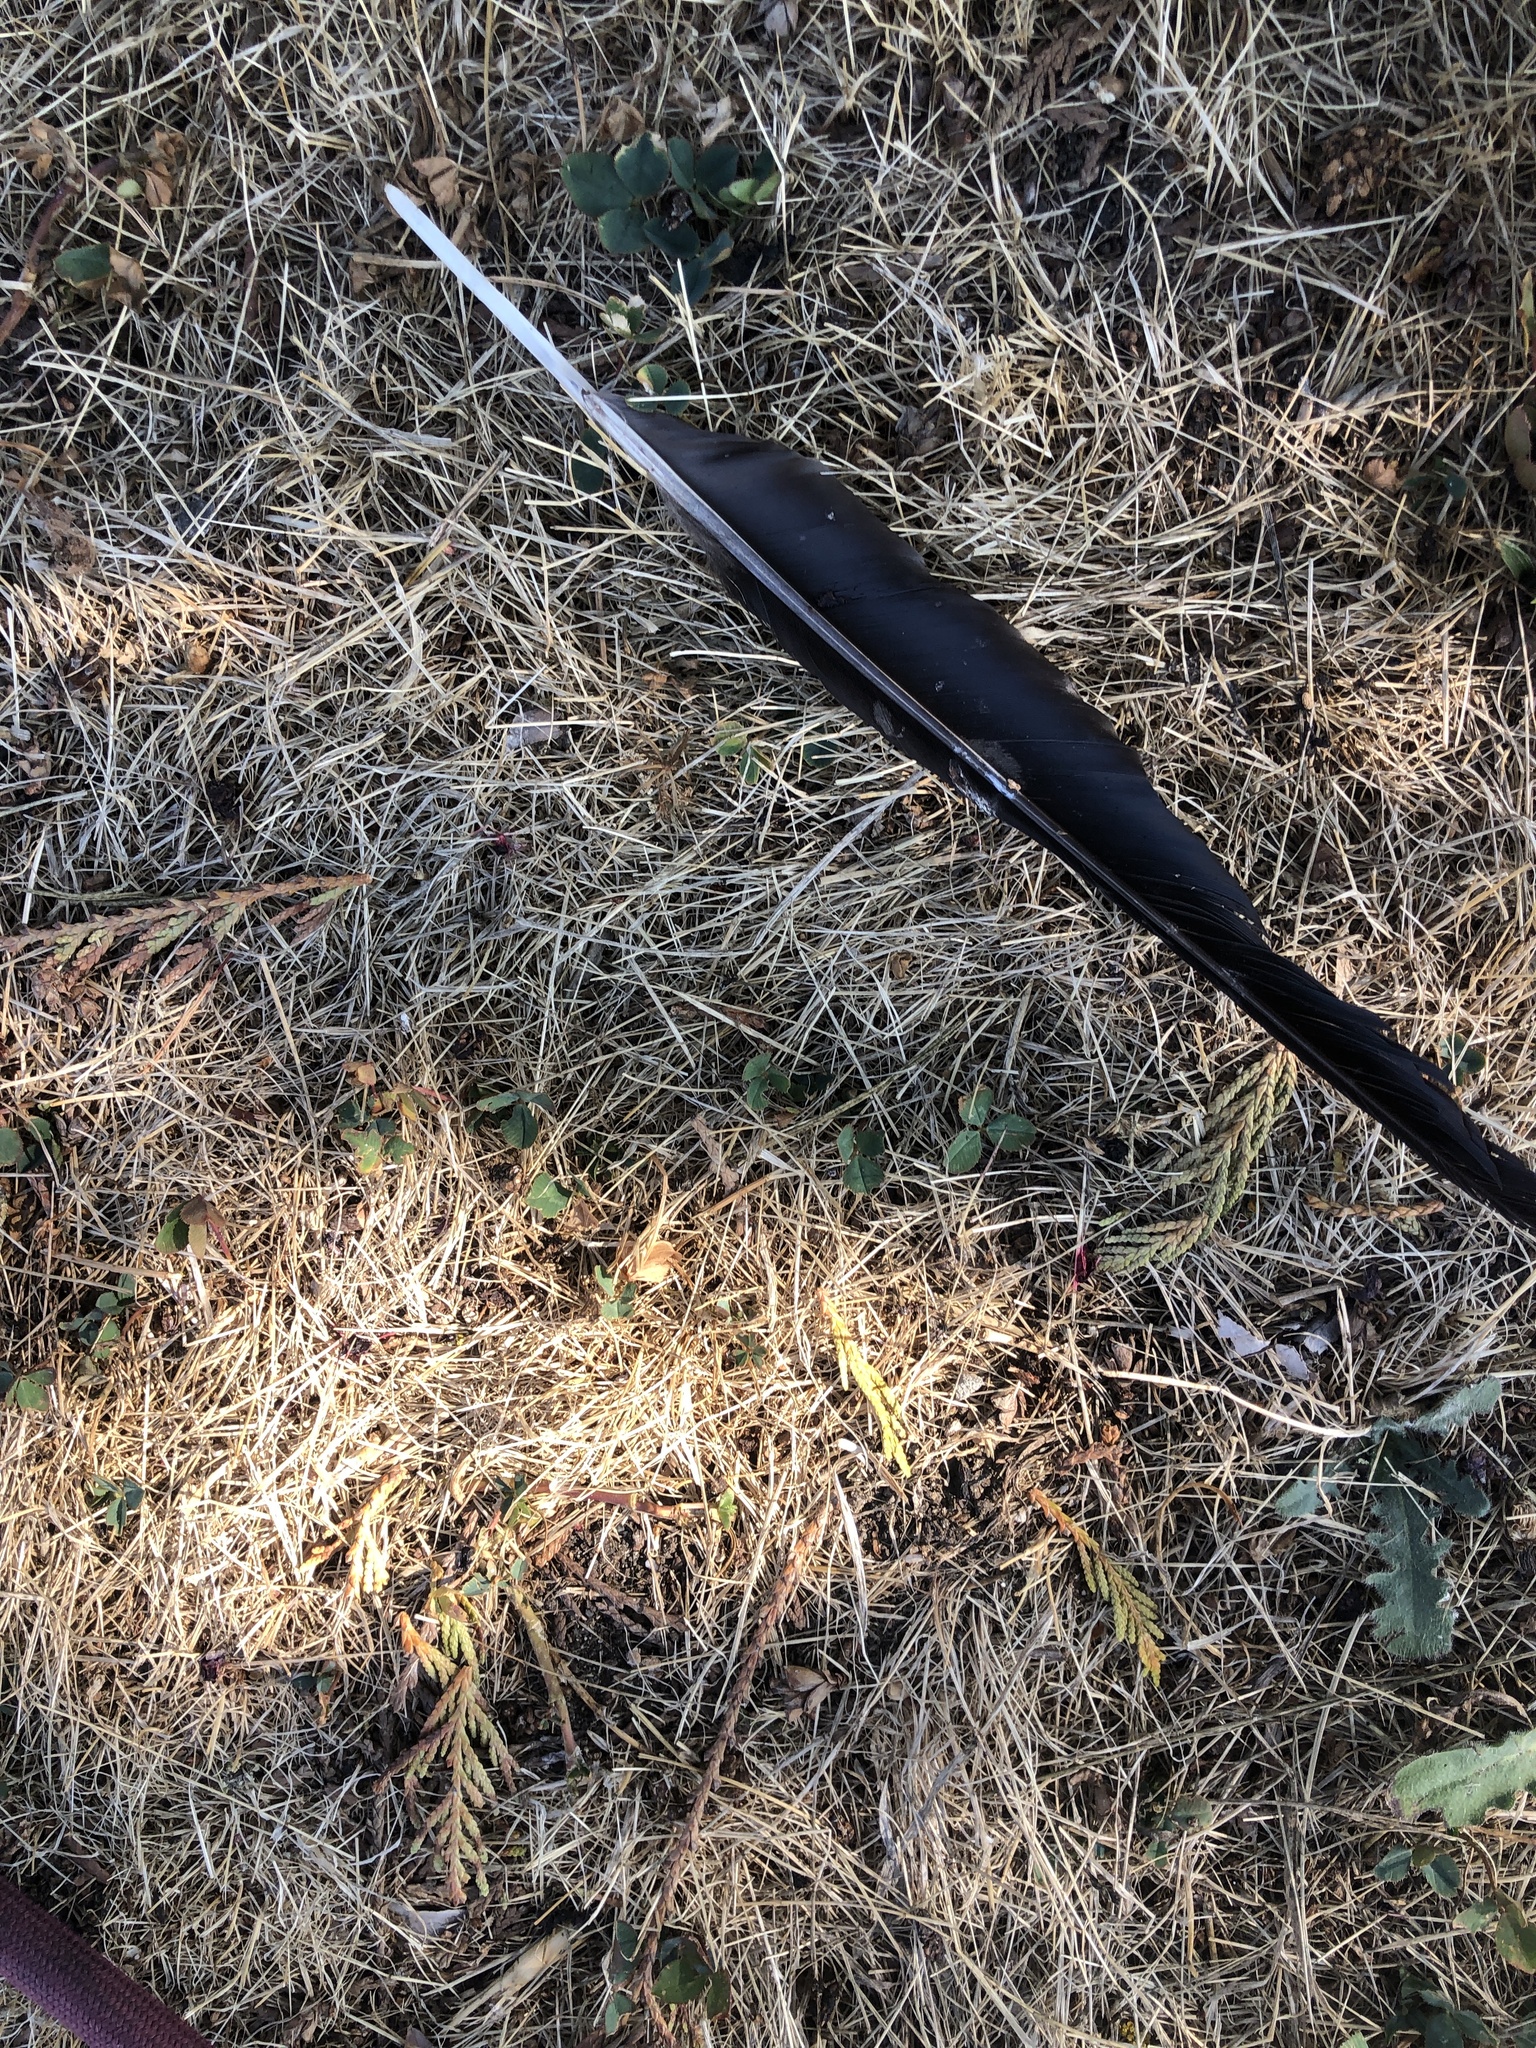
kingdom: Animalia
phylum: Chordata
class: Aves
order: Passeriformes
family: Corvidae
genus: Corvus
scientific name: Corvus brachyrhynchos
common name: American crow
